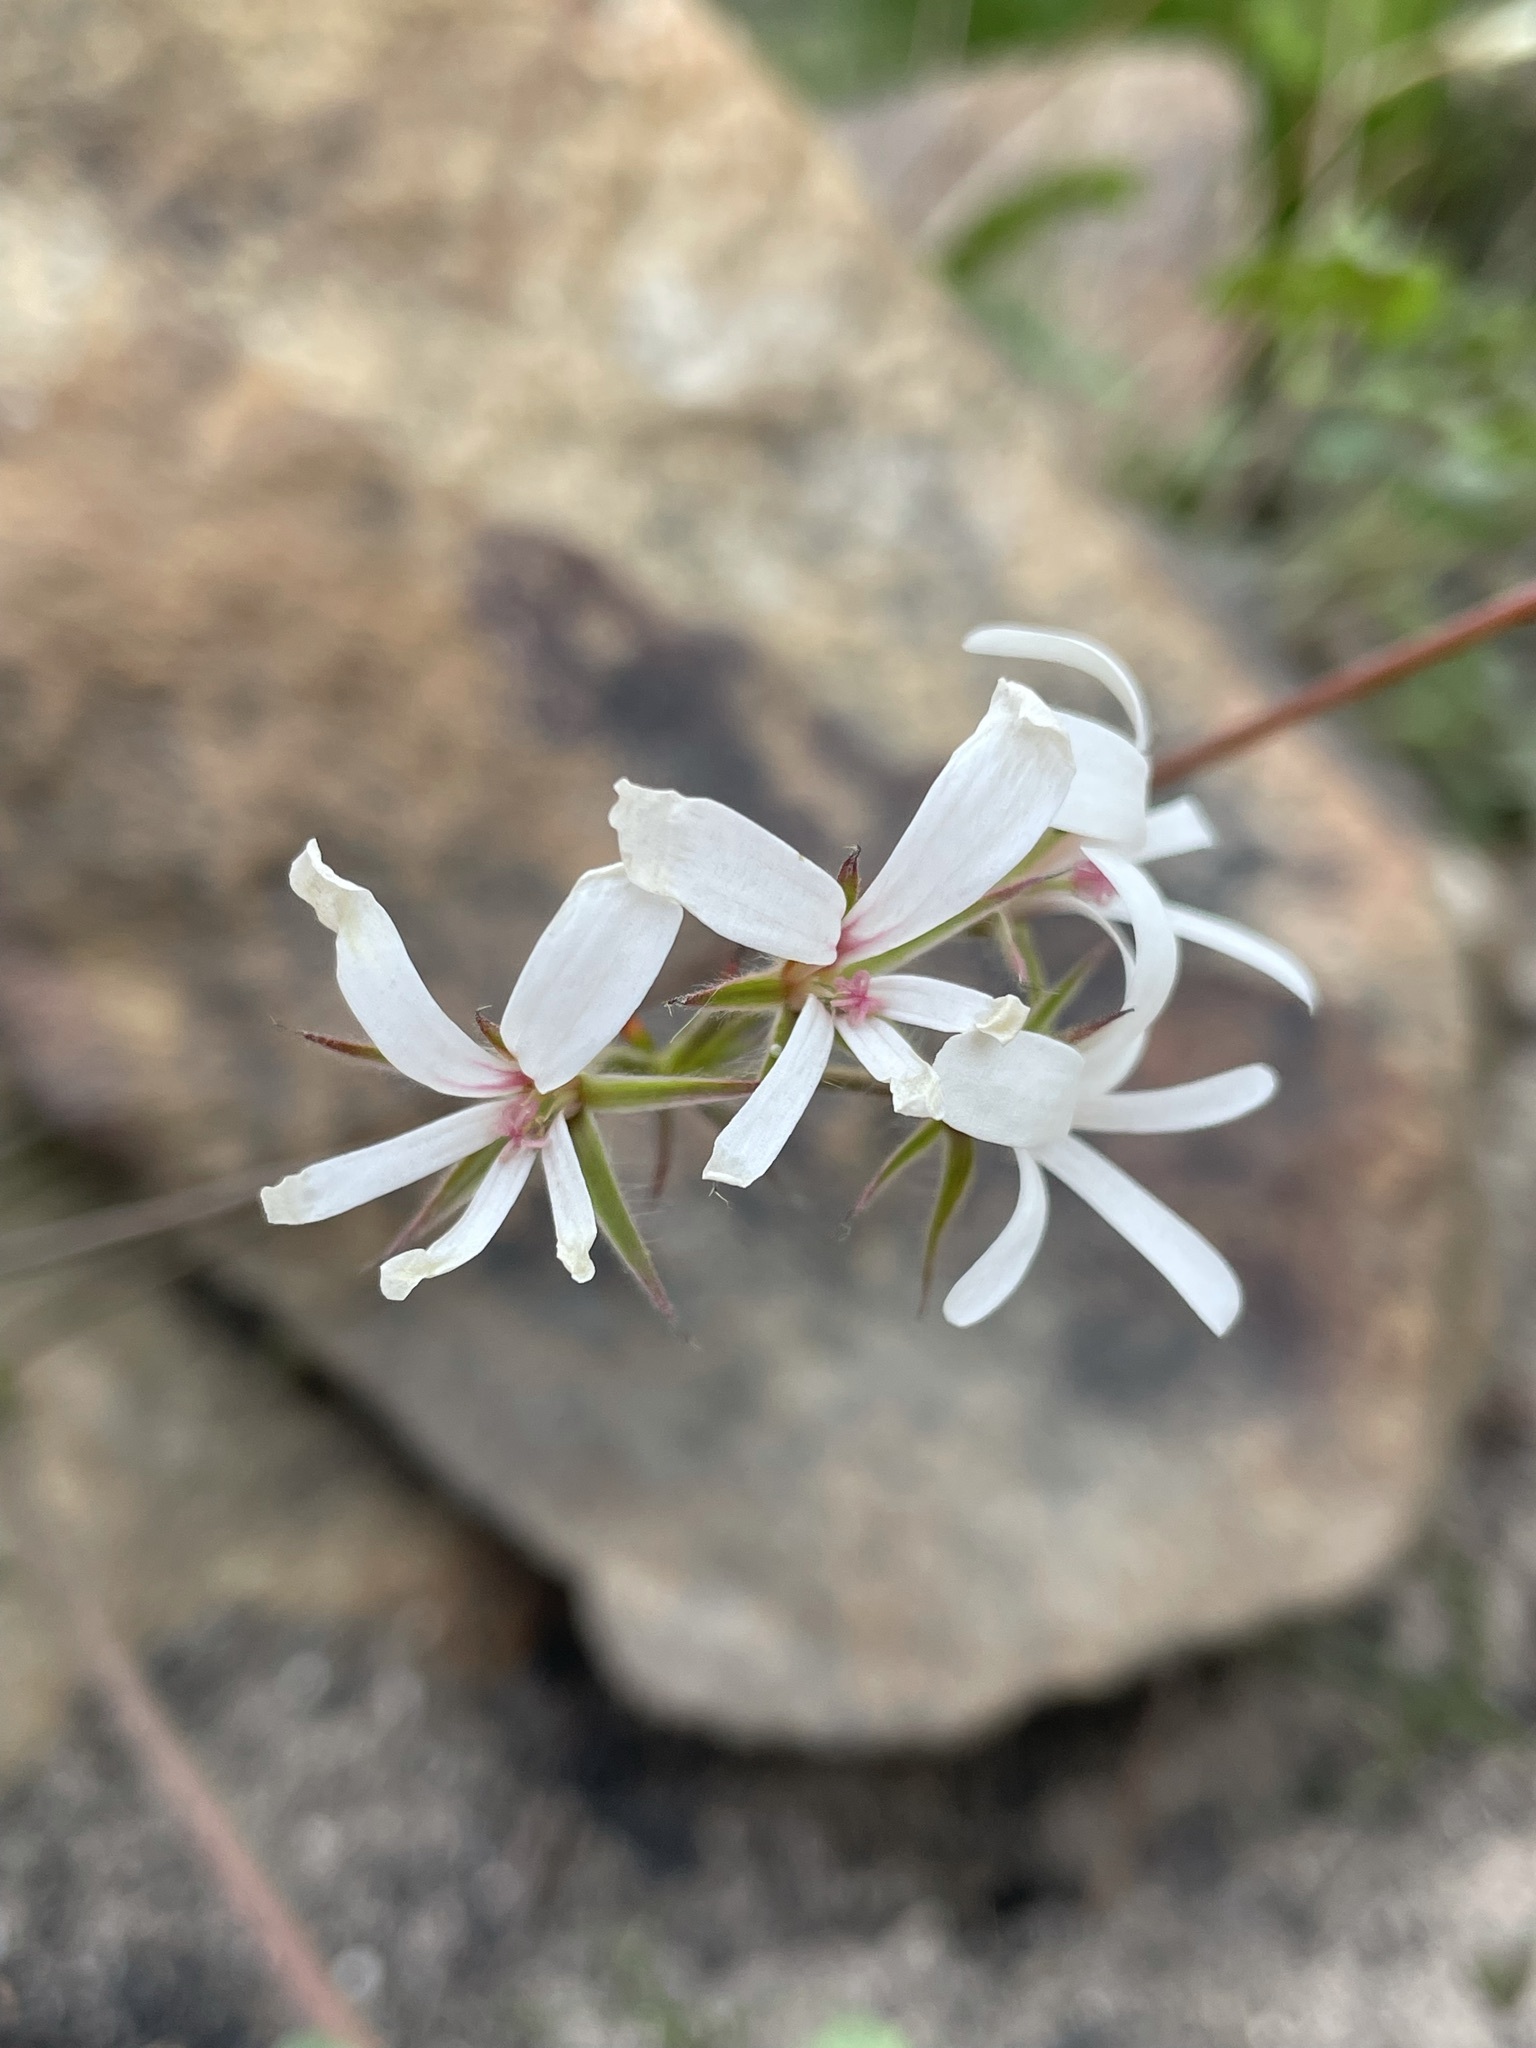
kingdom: Plantae
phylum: Tracheophyta
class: Magnoliopsida
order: Geraniales
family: Geraniaceae
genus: Pelargonium
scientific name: Pelargonium alchemilloides
